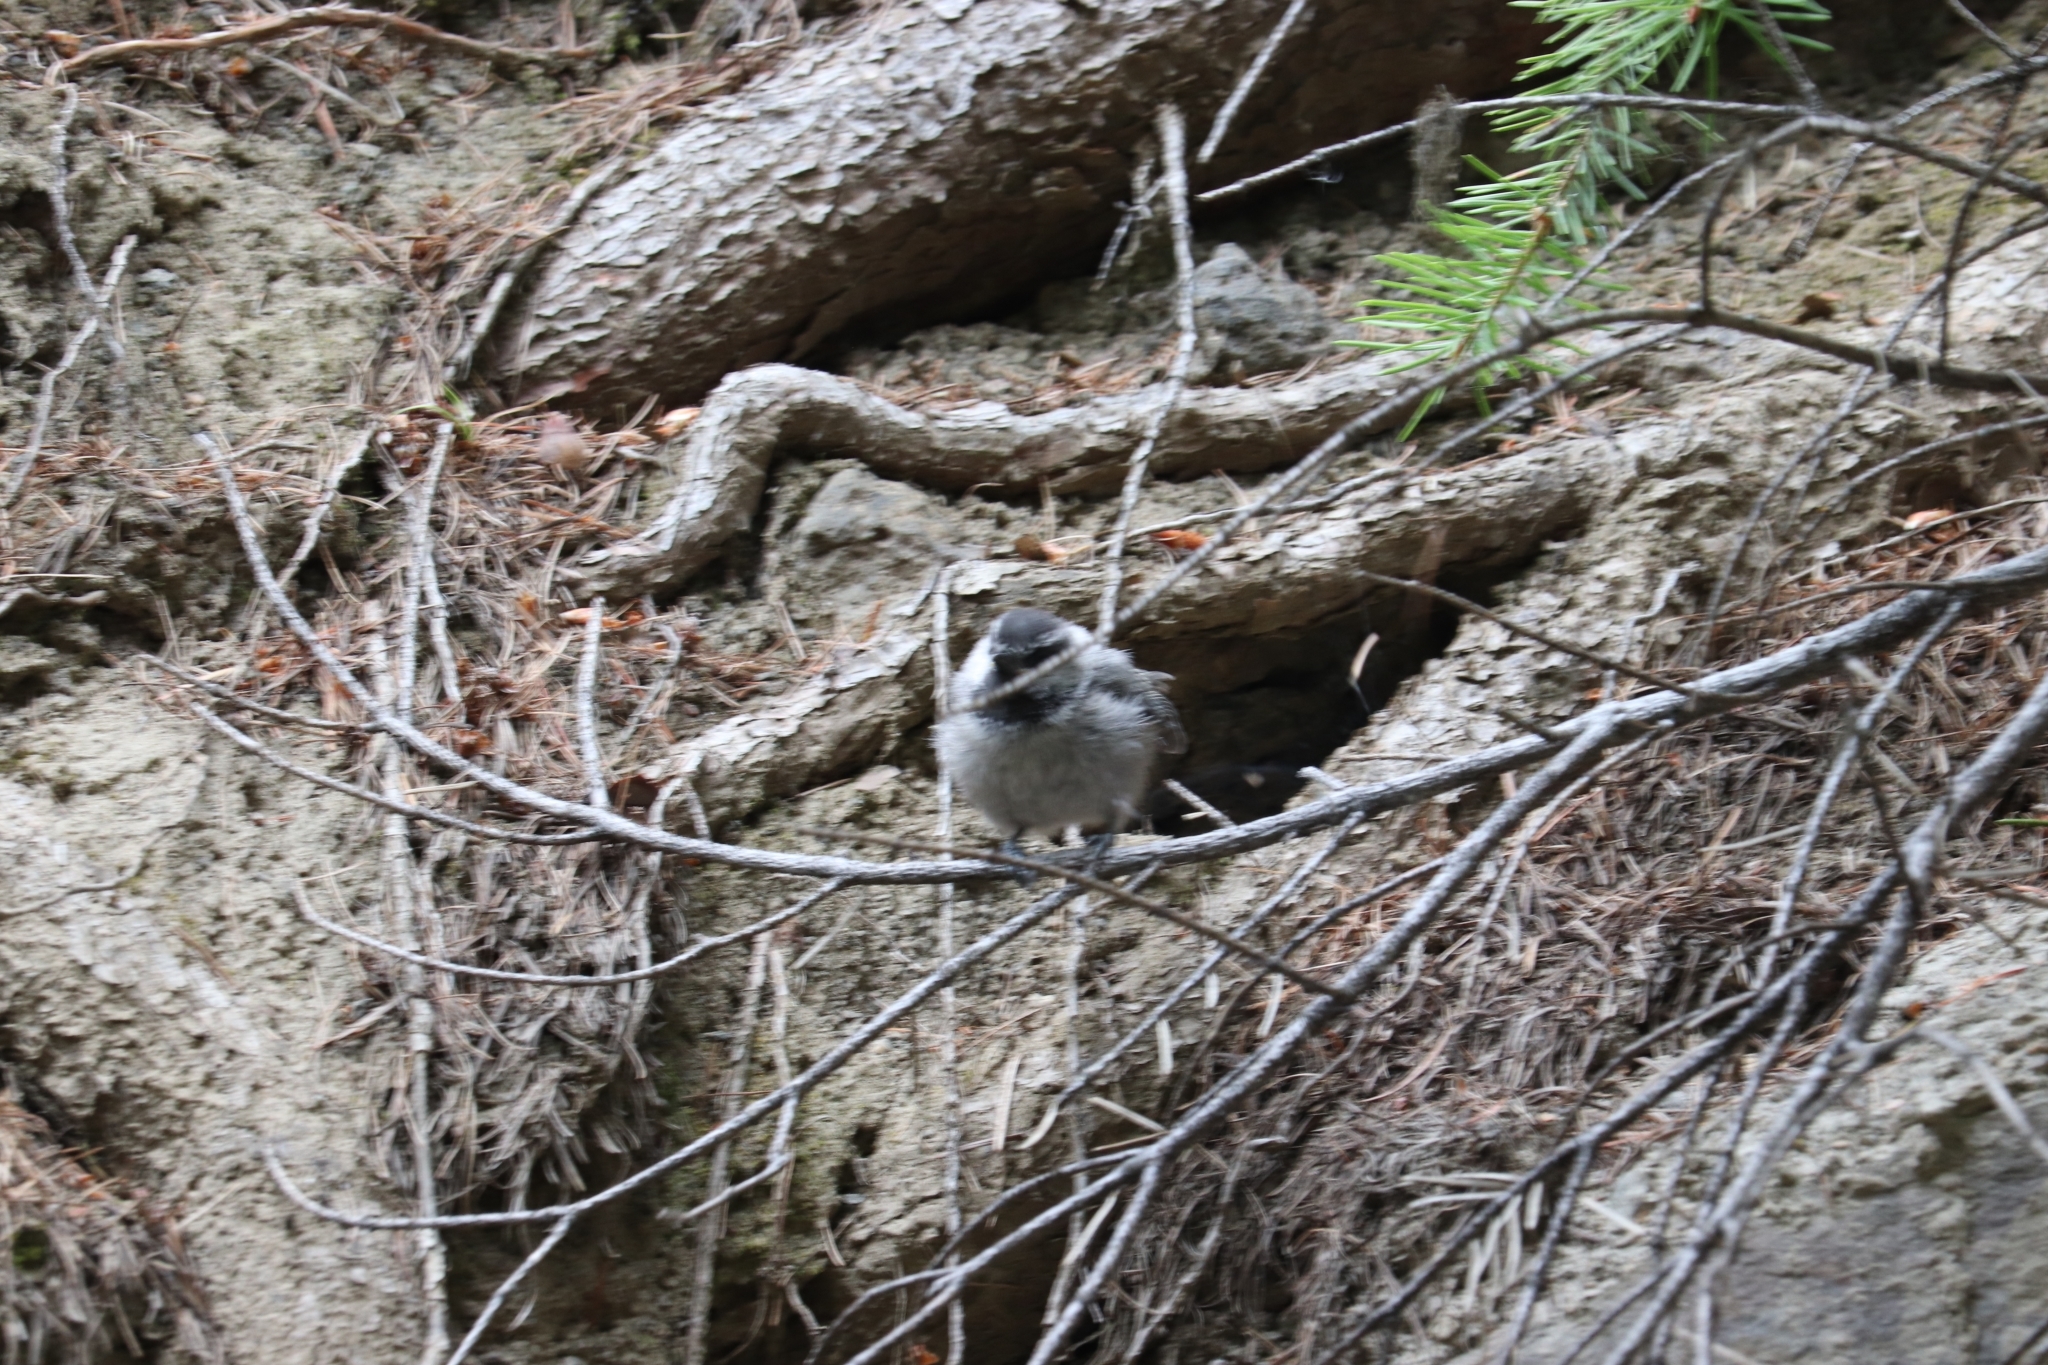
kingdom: Animalia
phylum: Chordata
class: Aves
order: Passeriformes
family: Paridae
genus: Poecile
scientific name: Poecile gambeli
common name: Mountain chickadee
